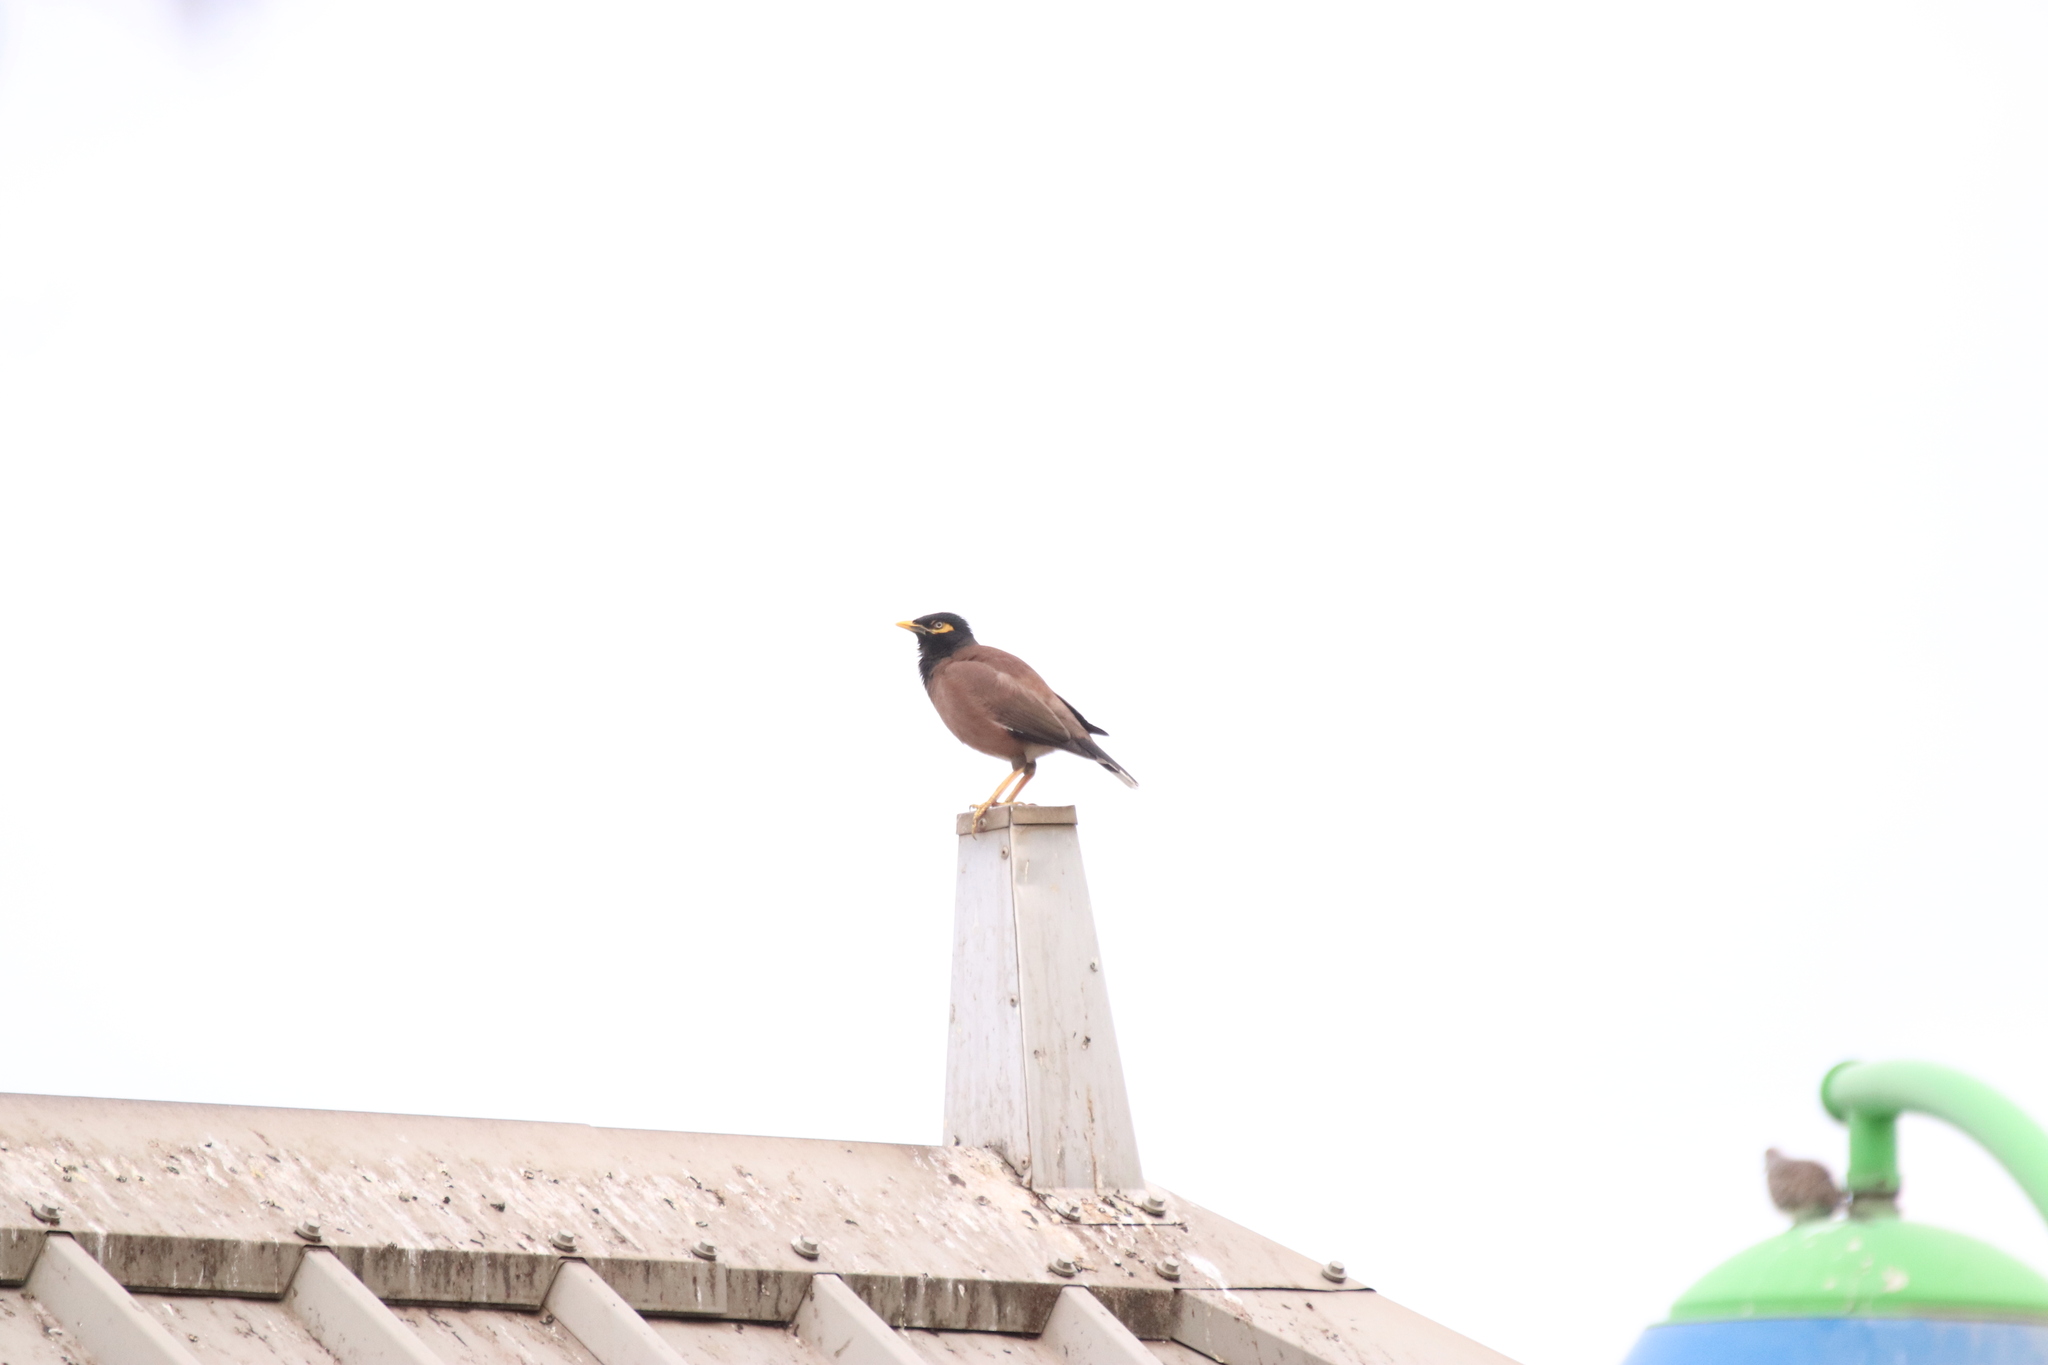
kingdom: Animalia
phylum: Chordata
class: Aves
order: Passeriformes
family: Sturnidae
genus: Acridotheres
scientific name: Acridotheres tristis
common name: Common myna
